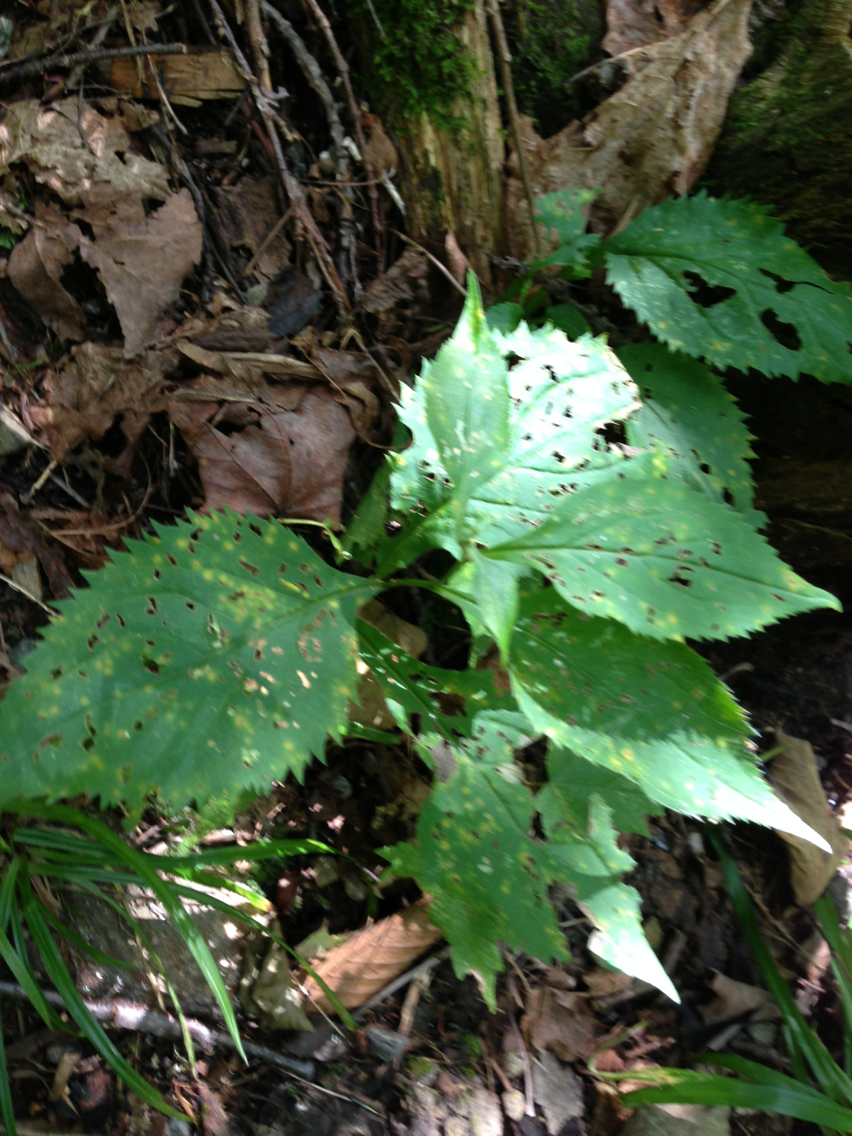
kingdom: Plantae
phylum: Tracheophyta
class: Magnoliopsida
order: Asterales
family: Asteraceae
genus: Solidago
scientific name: Solidago flexicaulis
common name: Zig-zag goldenrod
